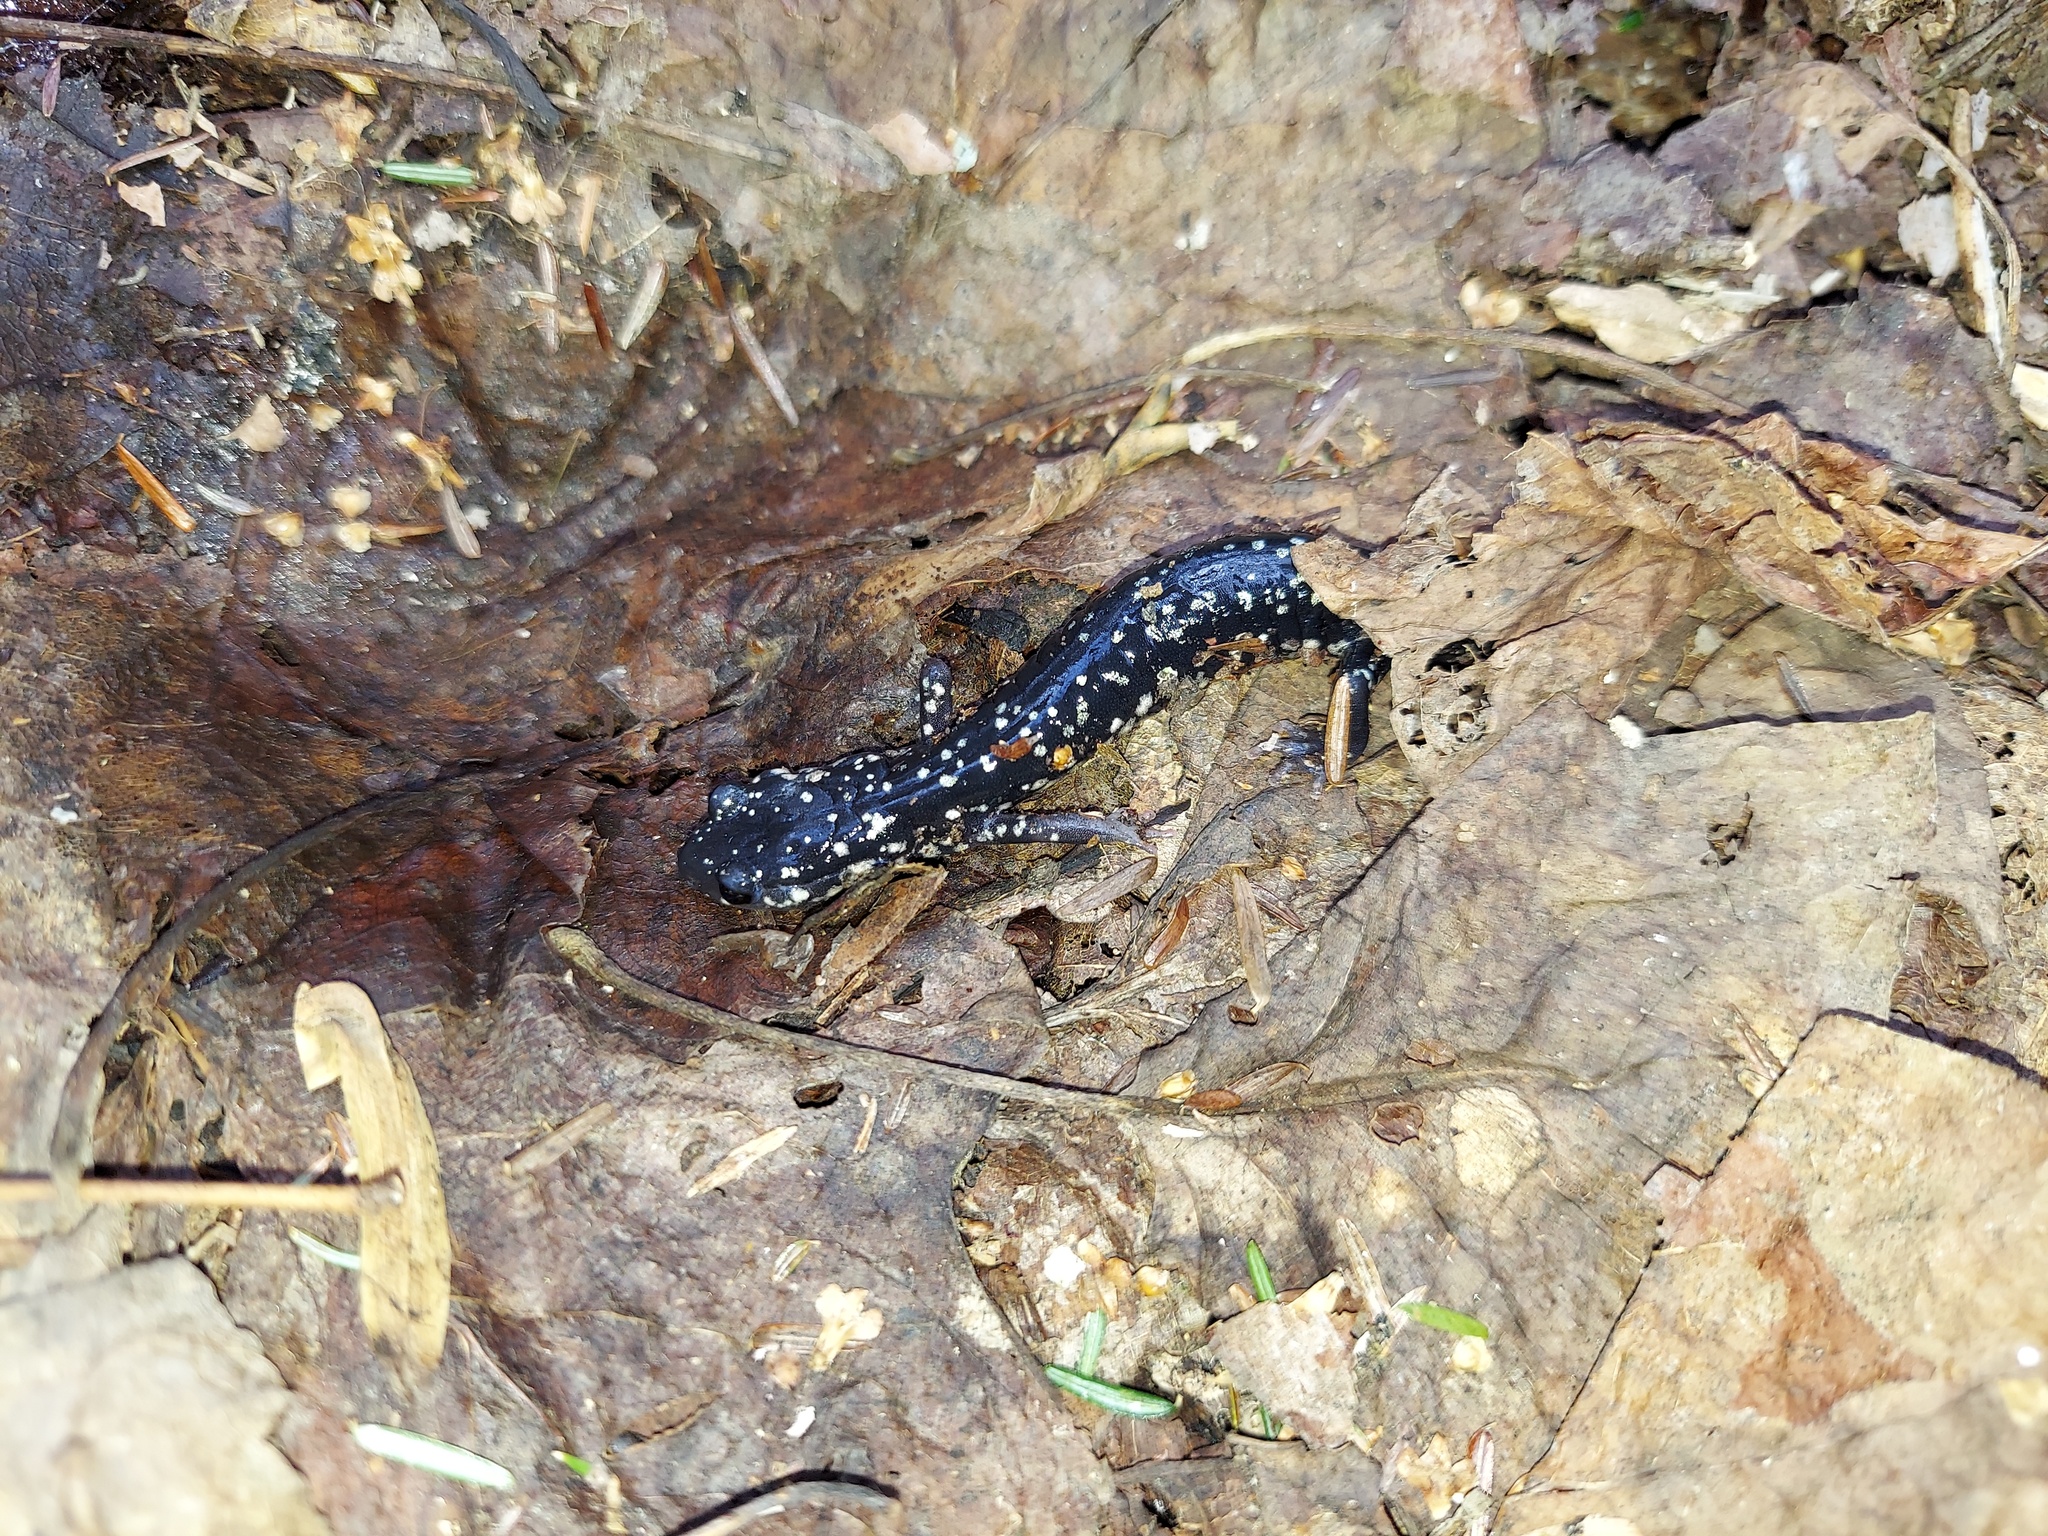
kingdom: Animalia
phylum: Chordata
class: Amphibia
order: Caudata
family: Plethodontidae
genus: Plethodon
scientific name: Plethodon glutinosus
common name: Northern slimy salamander
